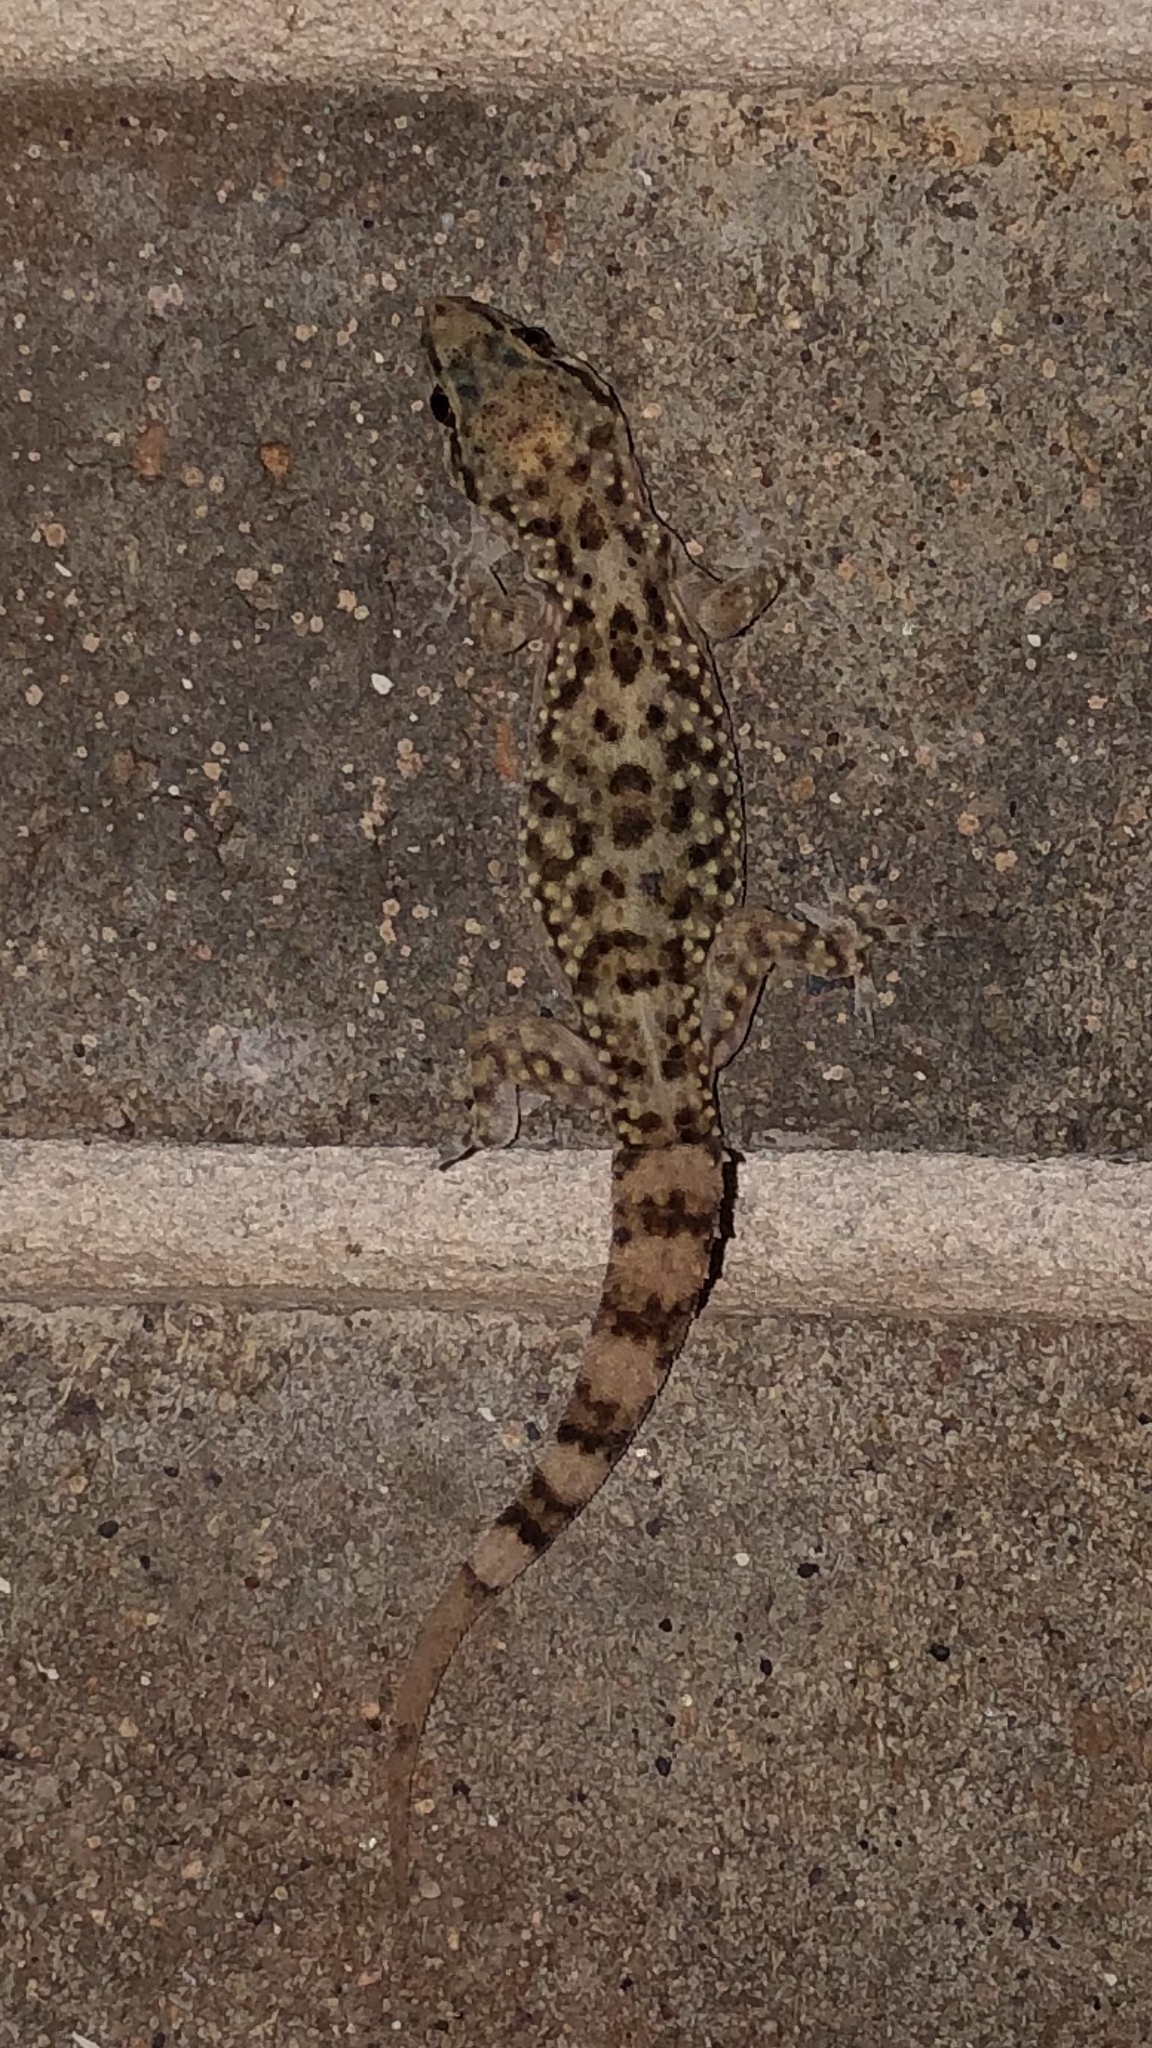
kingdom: Animalia
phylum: Chordata
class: Squamata
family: Gekkonidae
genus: Hemidactylus
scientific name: Hemidactylus turcicus
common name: Turkish gecko
